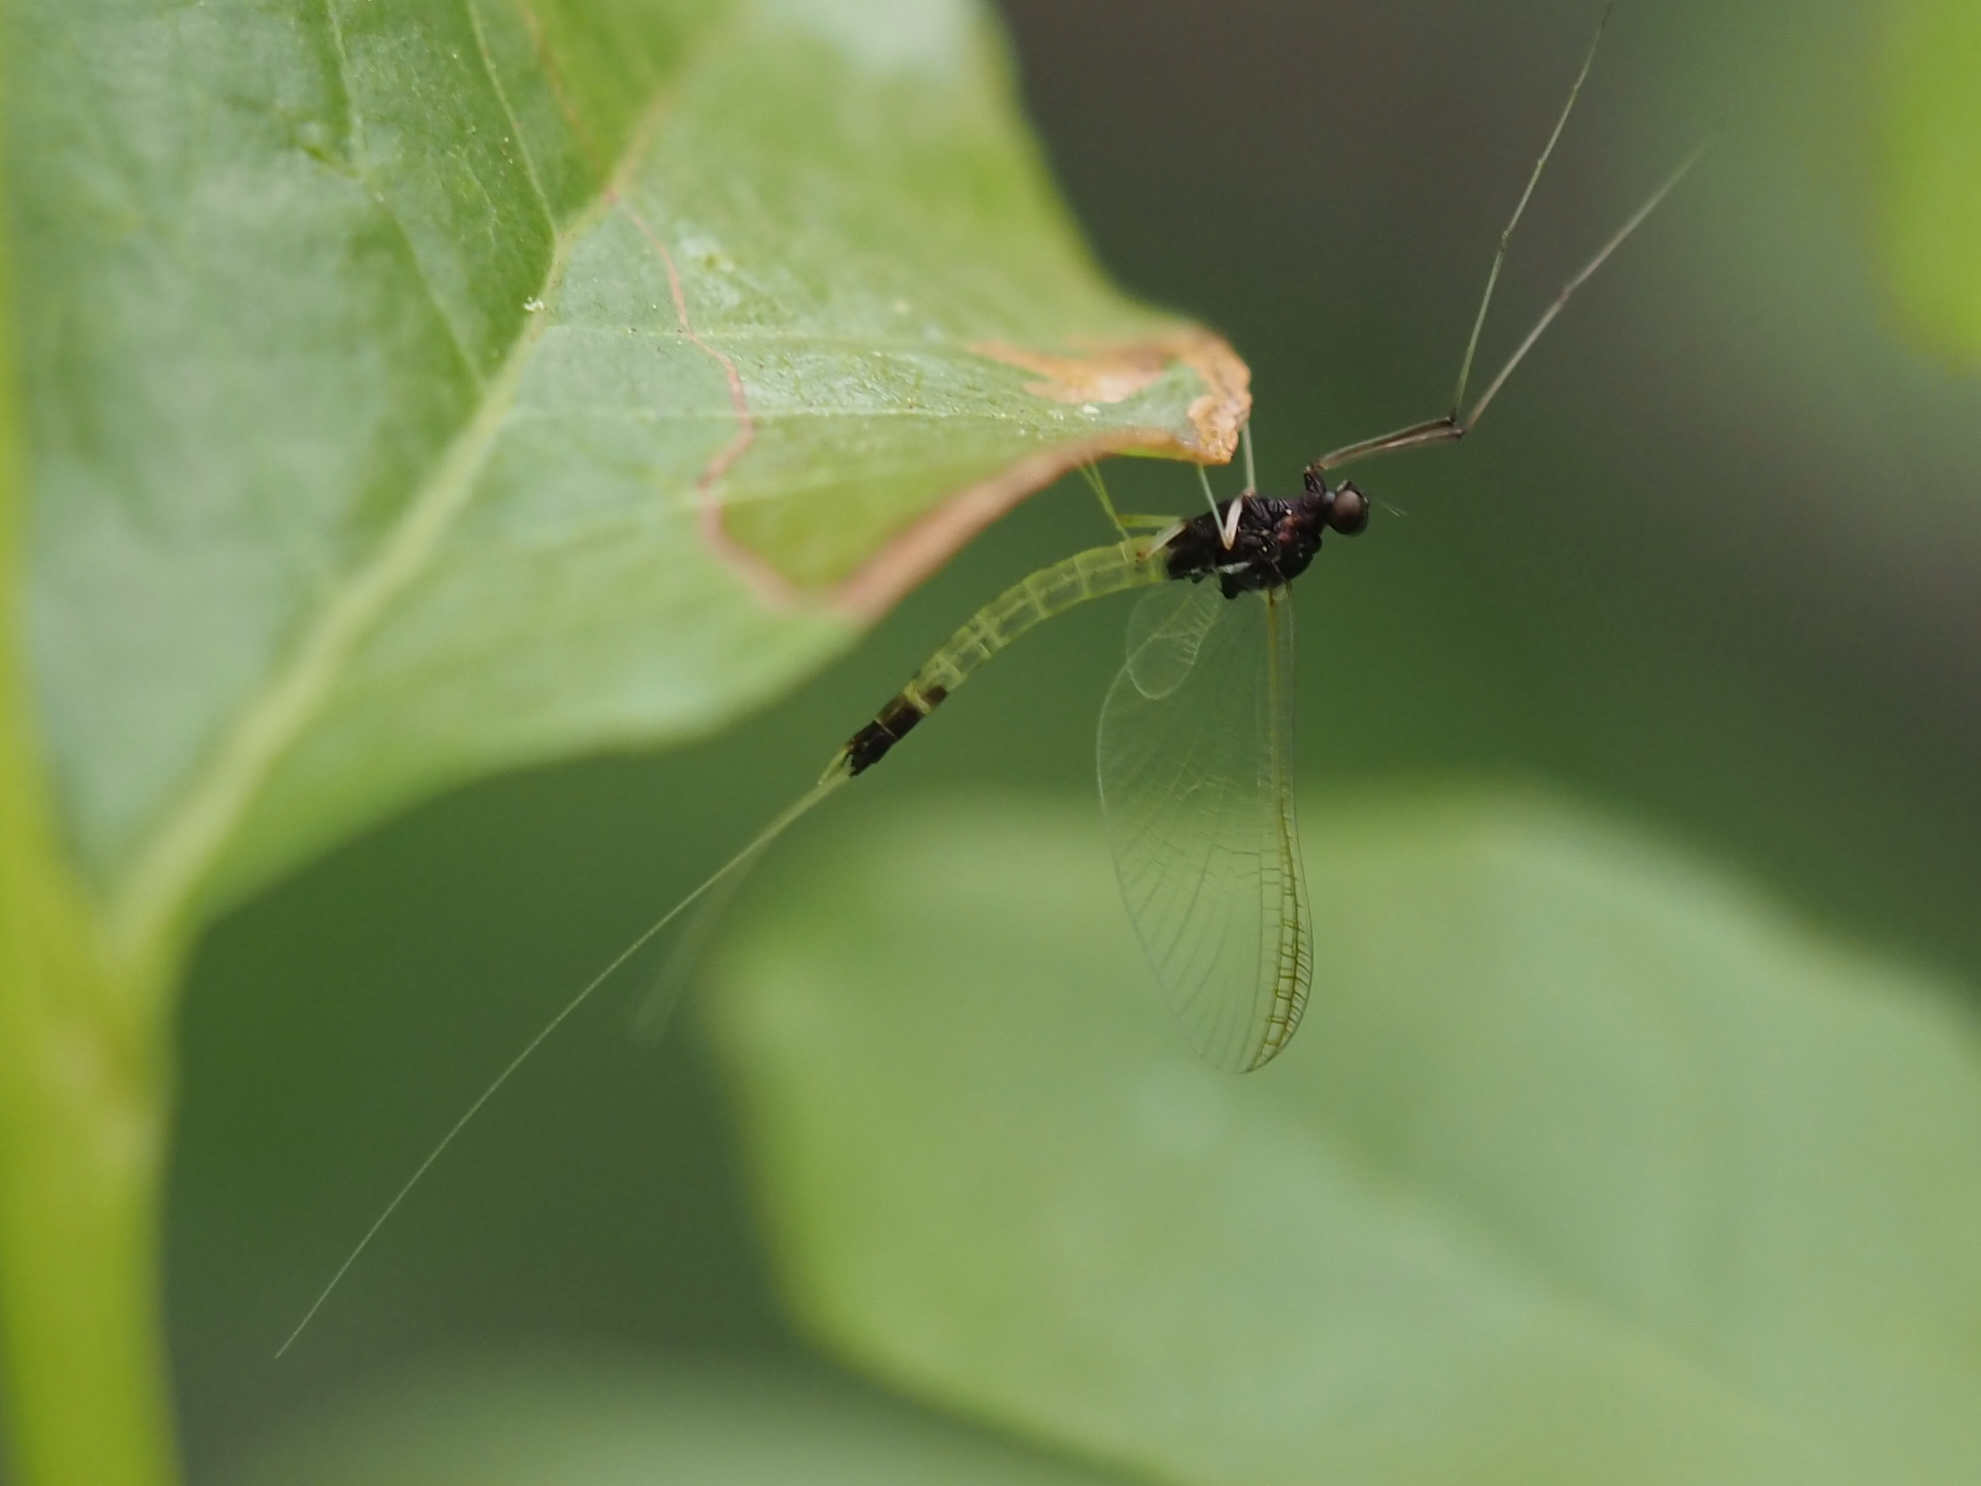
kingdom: Animalia
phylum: Arthropoda
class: Insecta
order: Ephemeroptera
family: Leptophlebiidae
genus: Neoleptophlebia
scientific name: Neoleptophlebia memorialis
